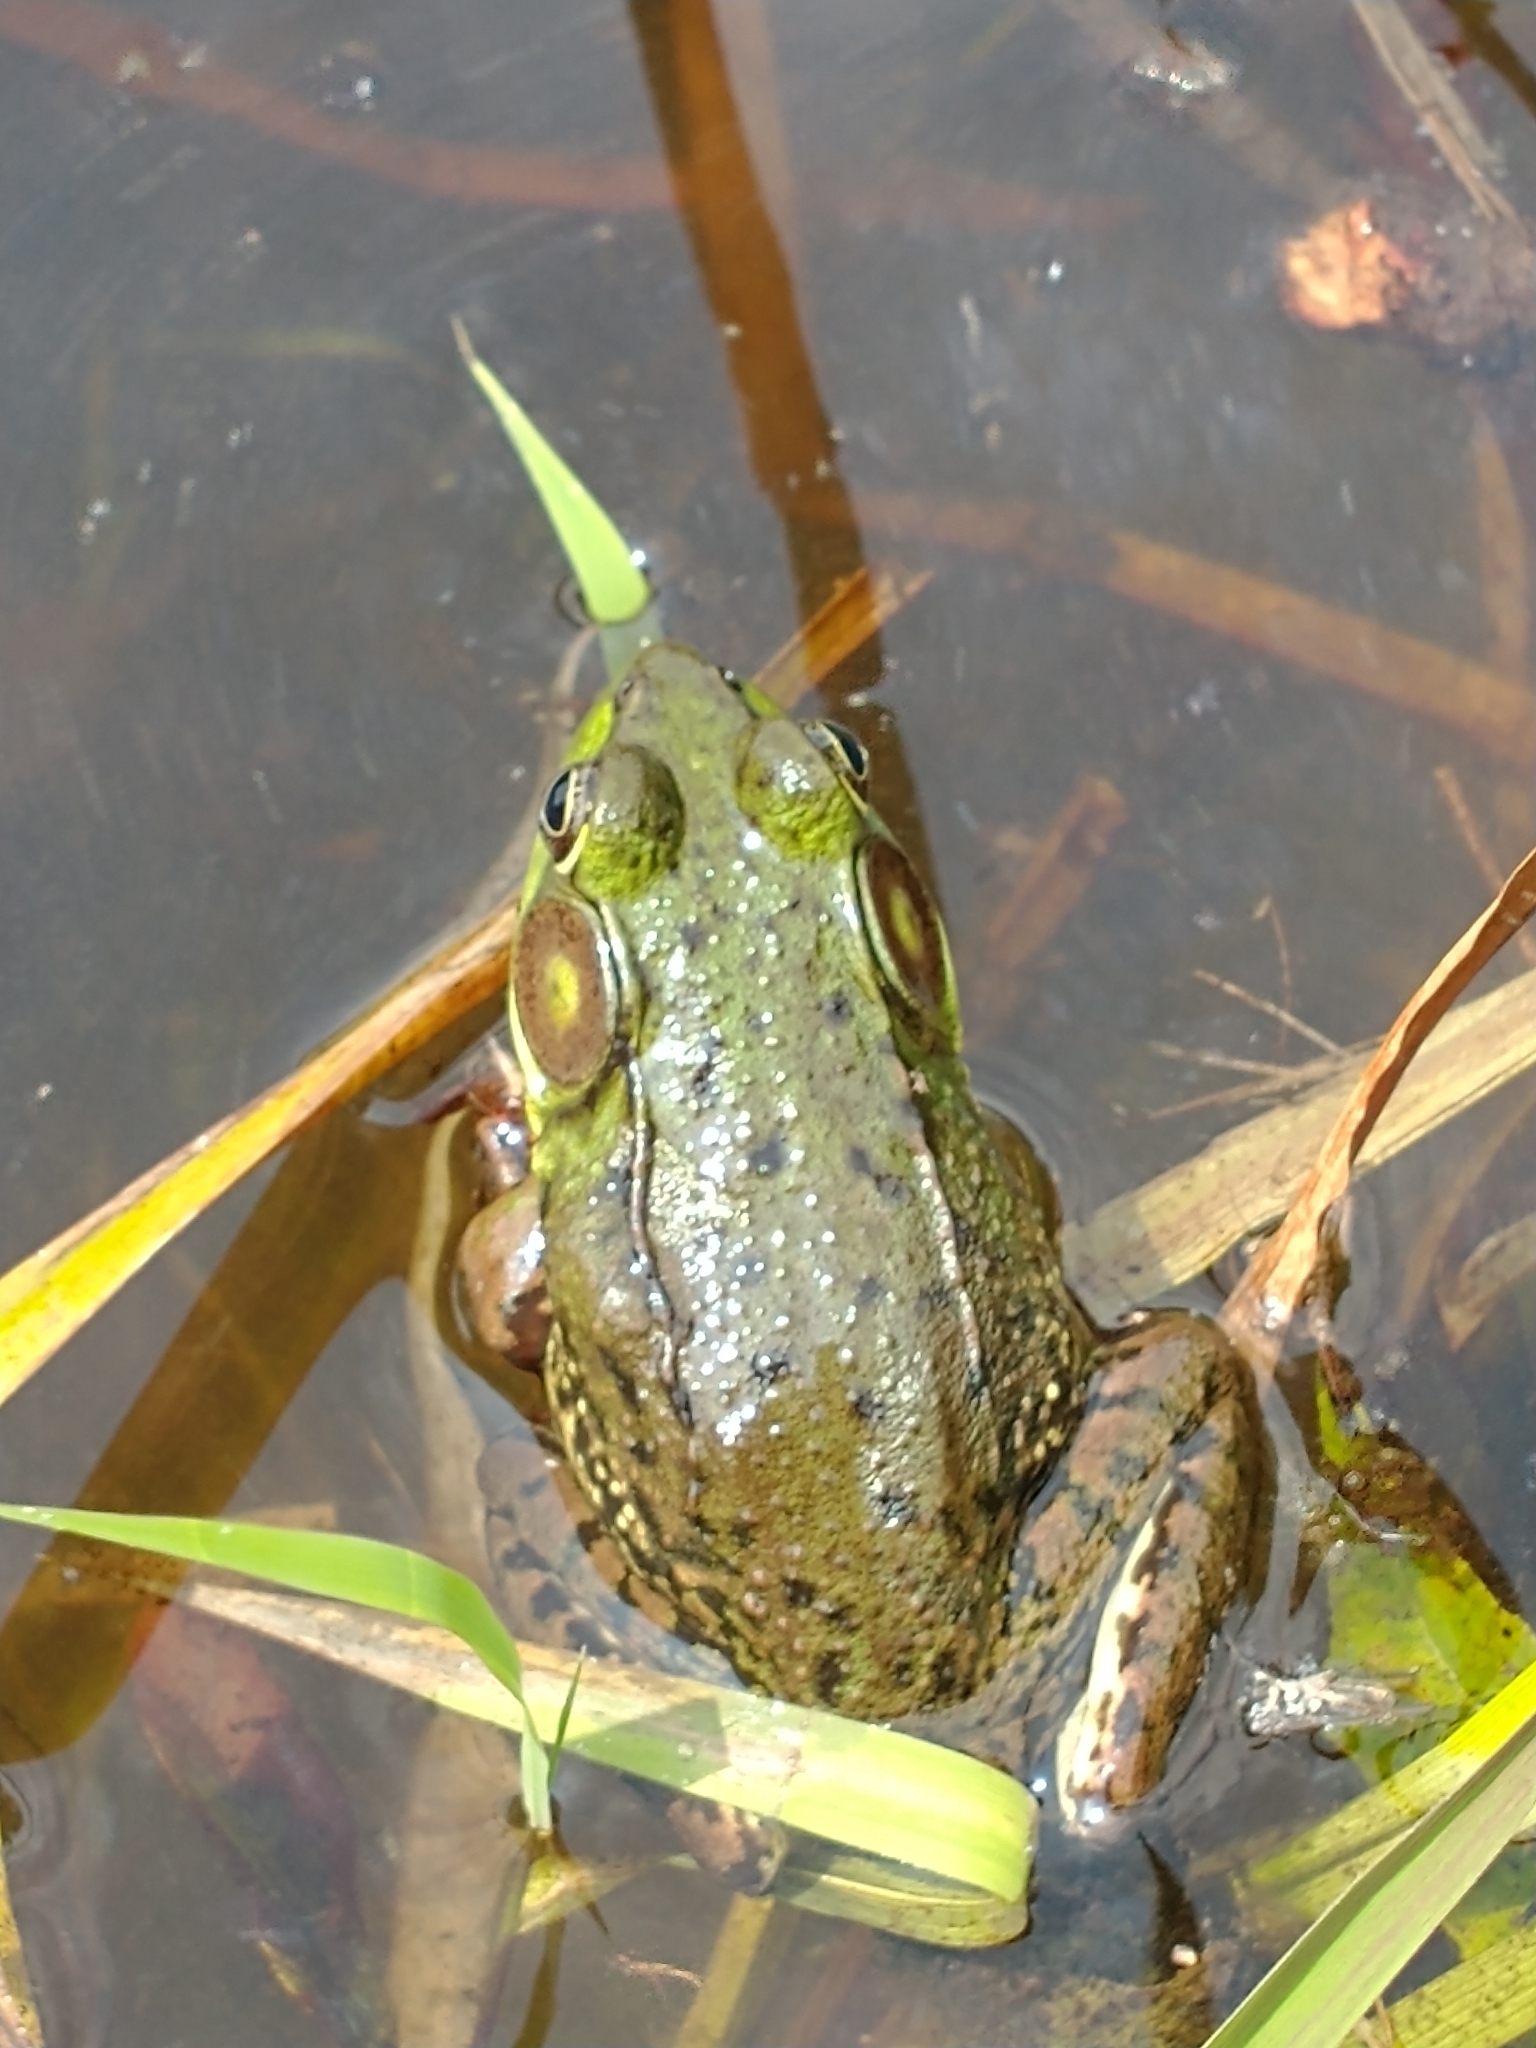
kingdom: Animalia
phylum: Chordata
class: Amphibia
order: Anura
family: Ranidae
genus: Lithobates
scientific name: Lithobates clamitans
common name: Green frog
